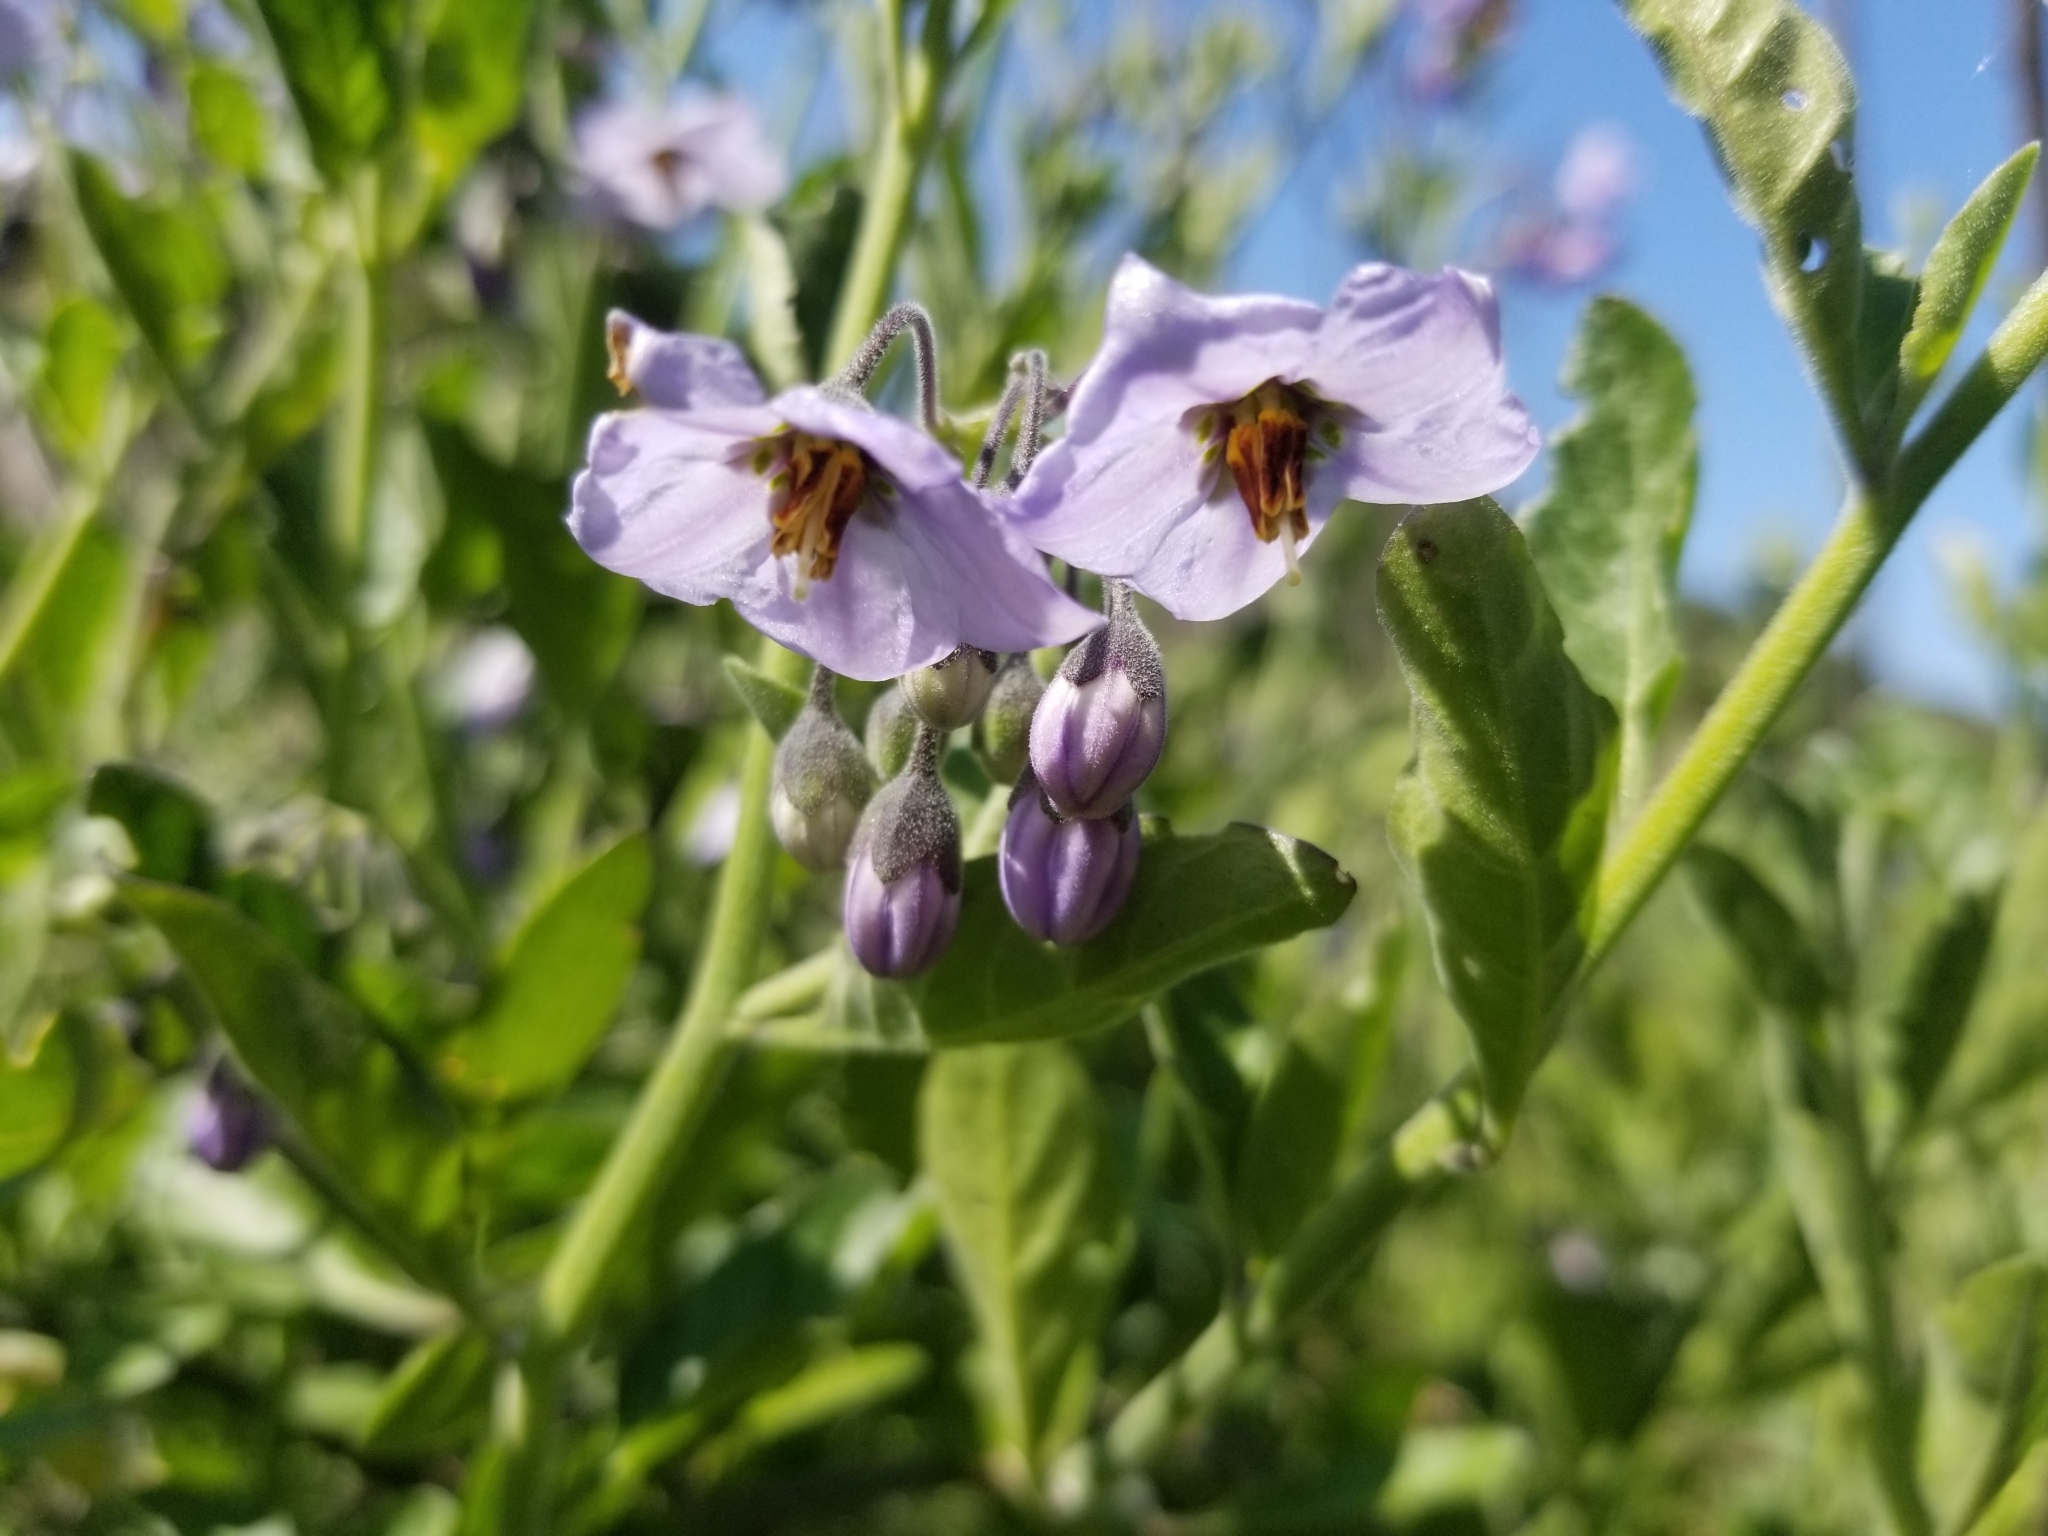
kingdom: Plantae
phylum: Tracheophyta
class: Magnoliopsida
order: Solanales
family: Solanaceae
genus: Solanum
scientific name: Solanum umbelliferum
